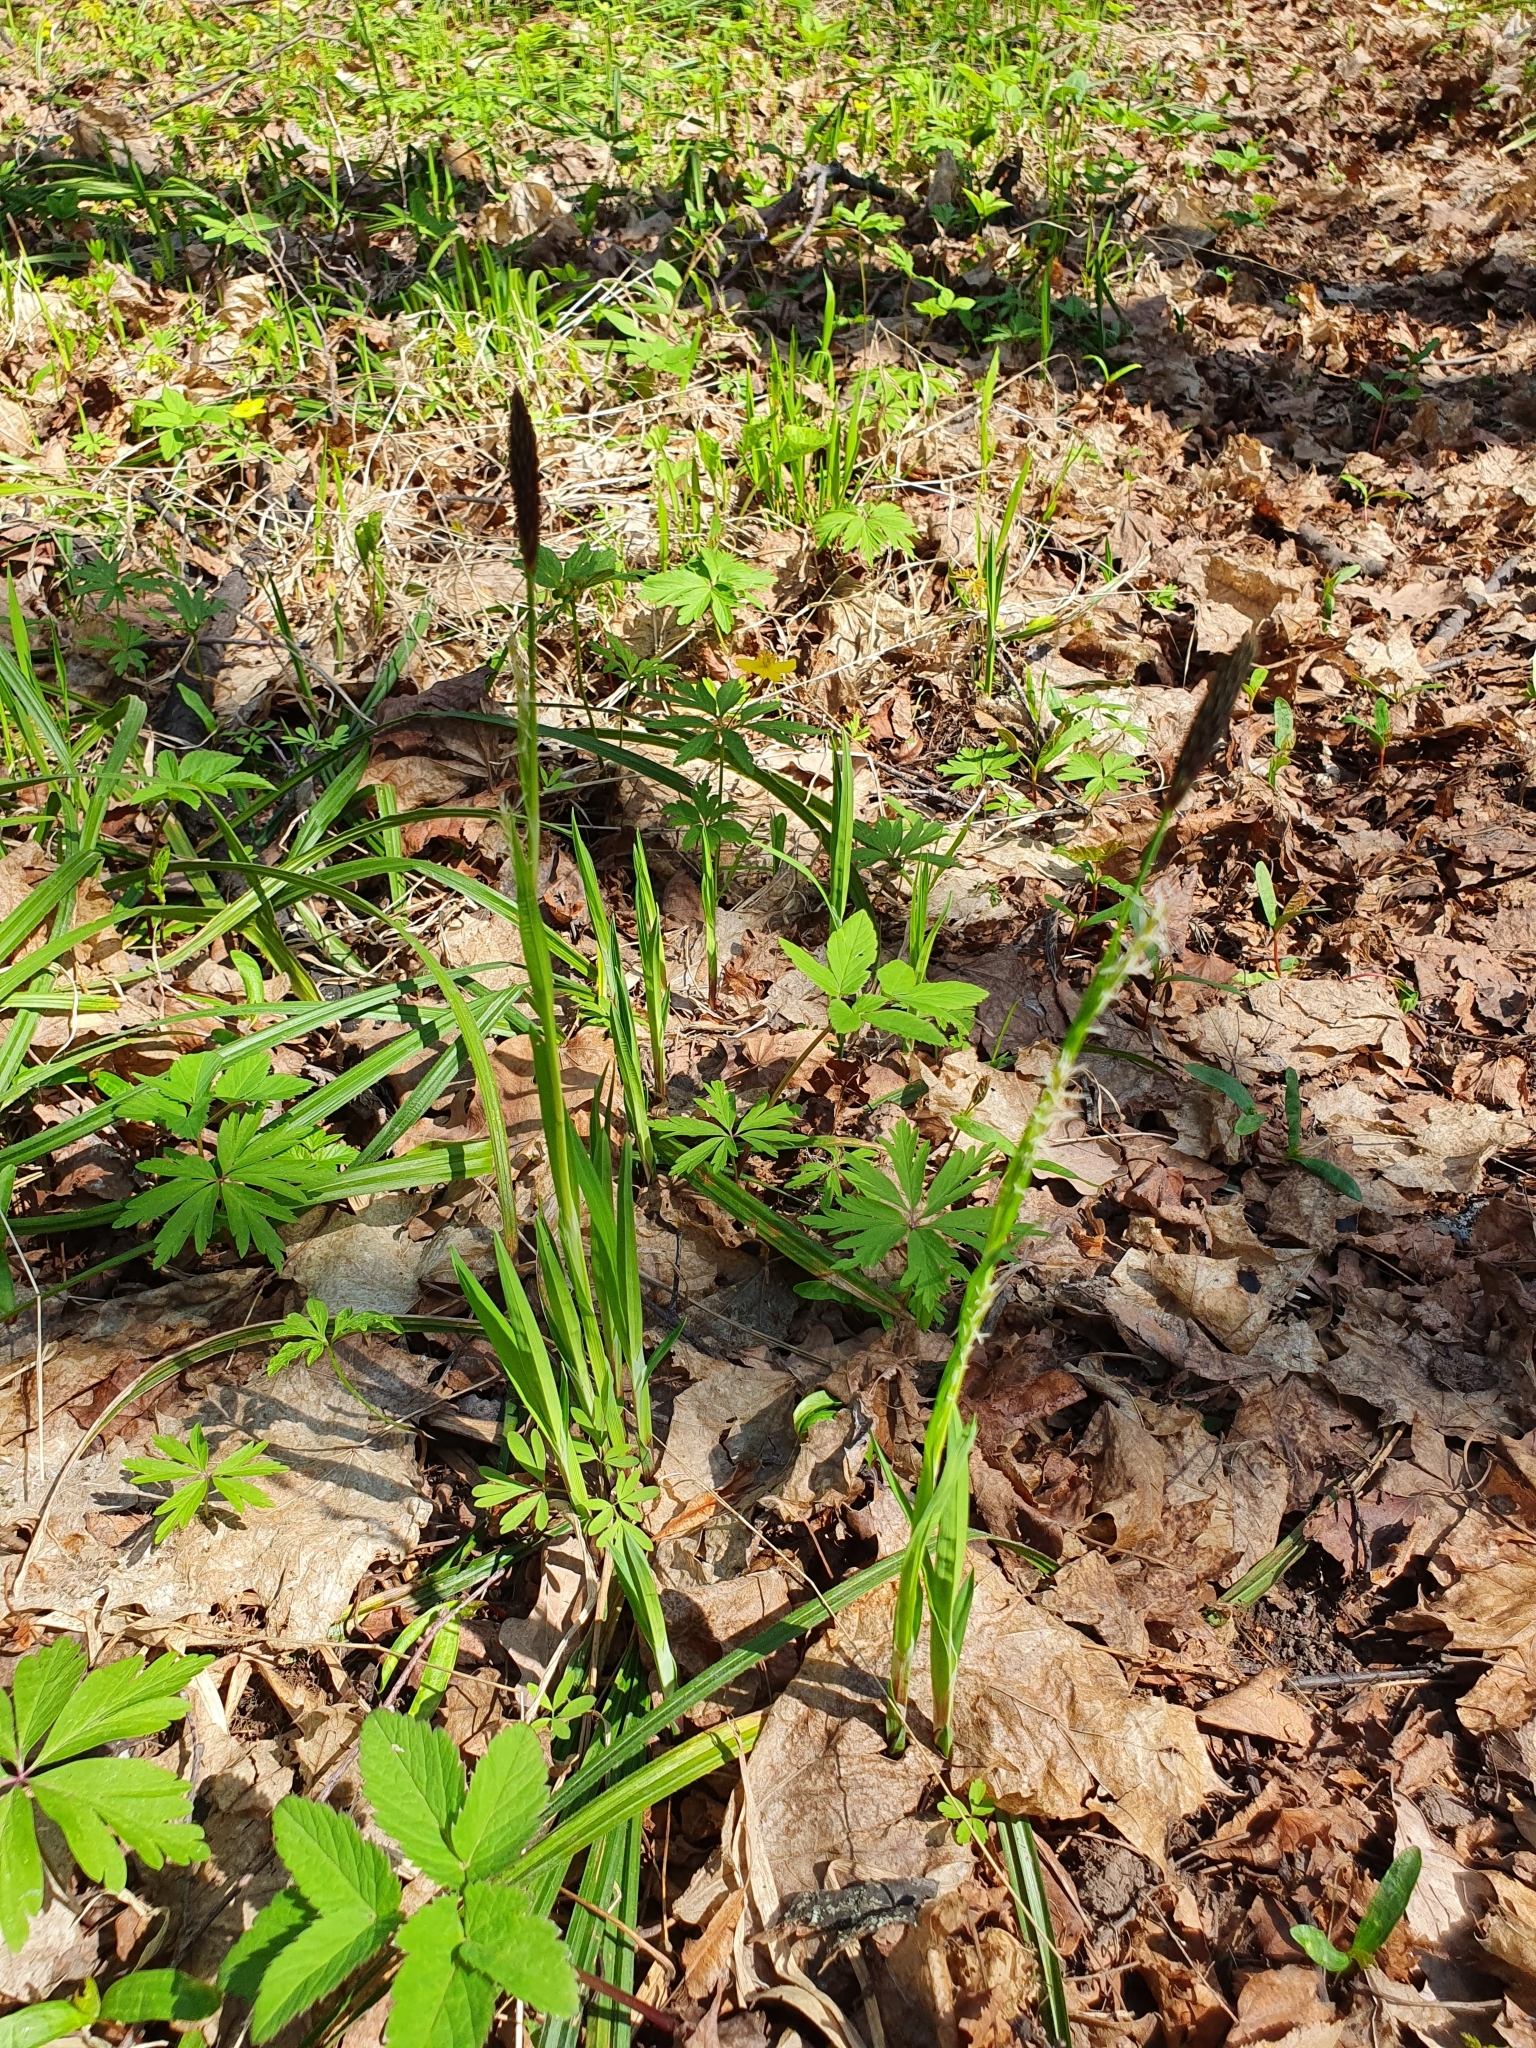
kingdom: Plantae
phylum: Tracheophyta
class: Liliopsida
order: Poales
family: Cyperaceae
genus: Carex
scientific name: Carex pilosa
